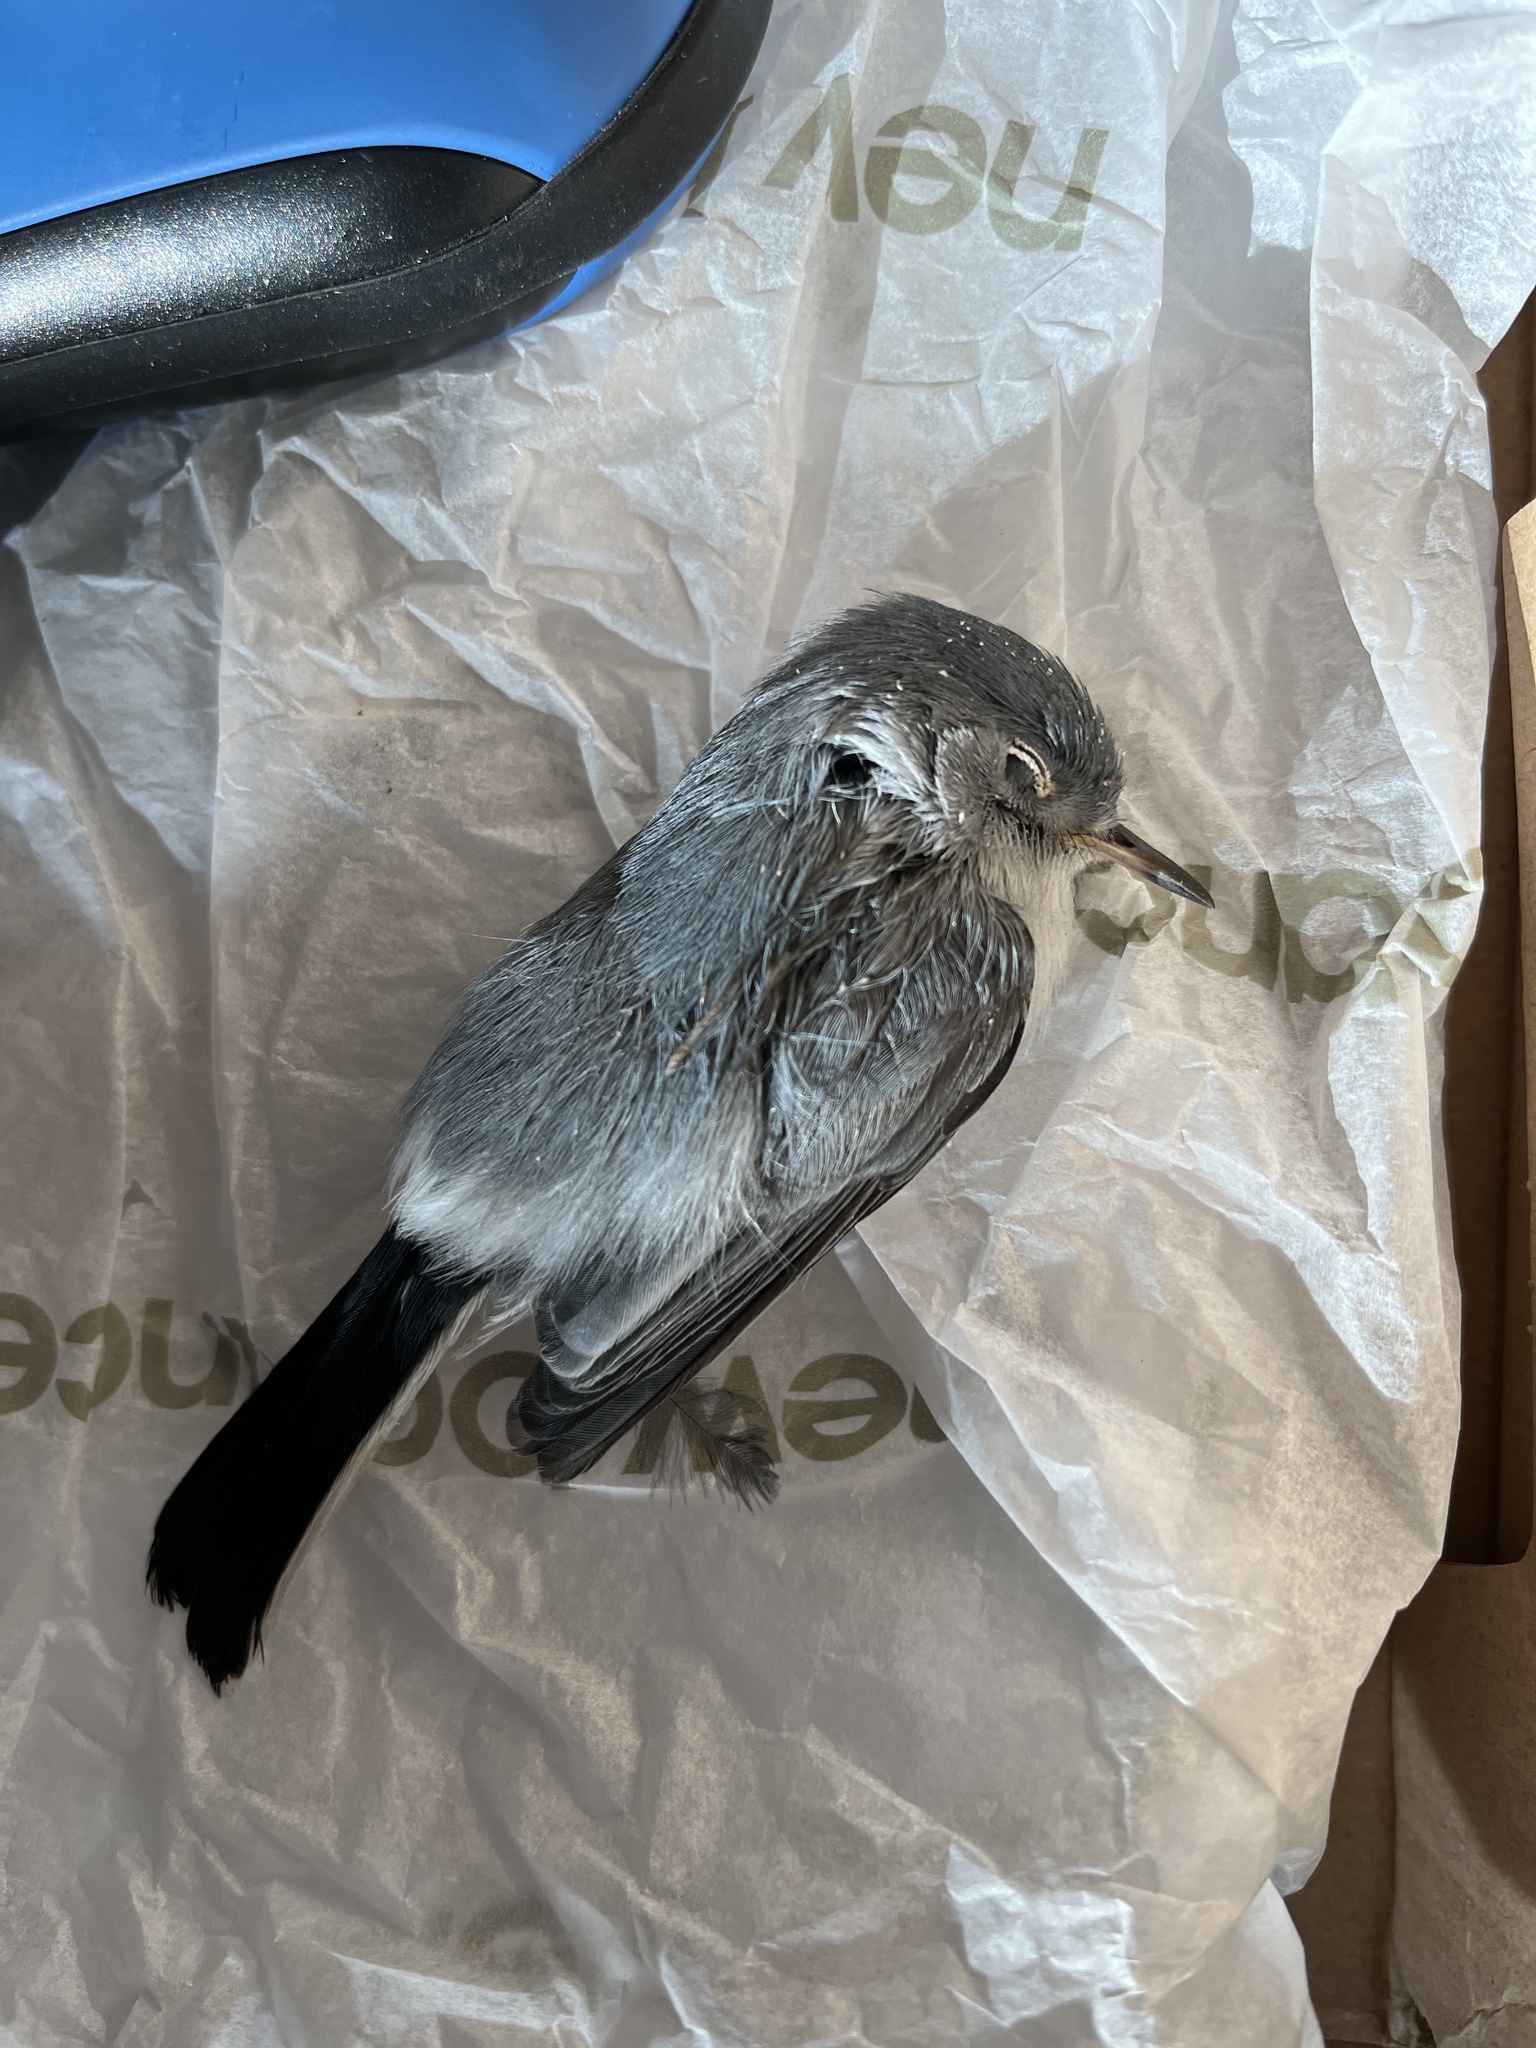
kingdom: Animalia
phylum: Chordata
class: Aves
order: Passeriformes
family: Polioptilidae
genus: Polioptila
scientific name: Polioptila caerulea
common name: Blue-gray gnatcatcher
